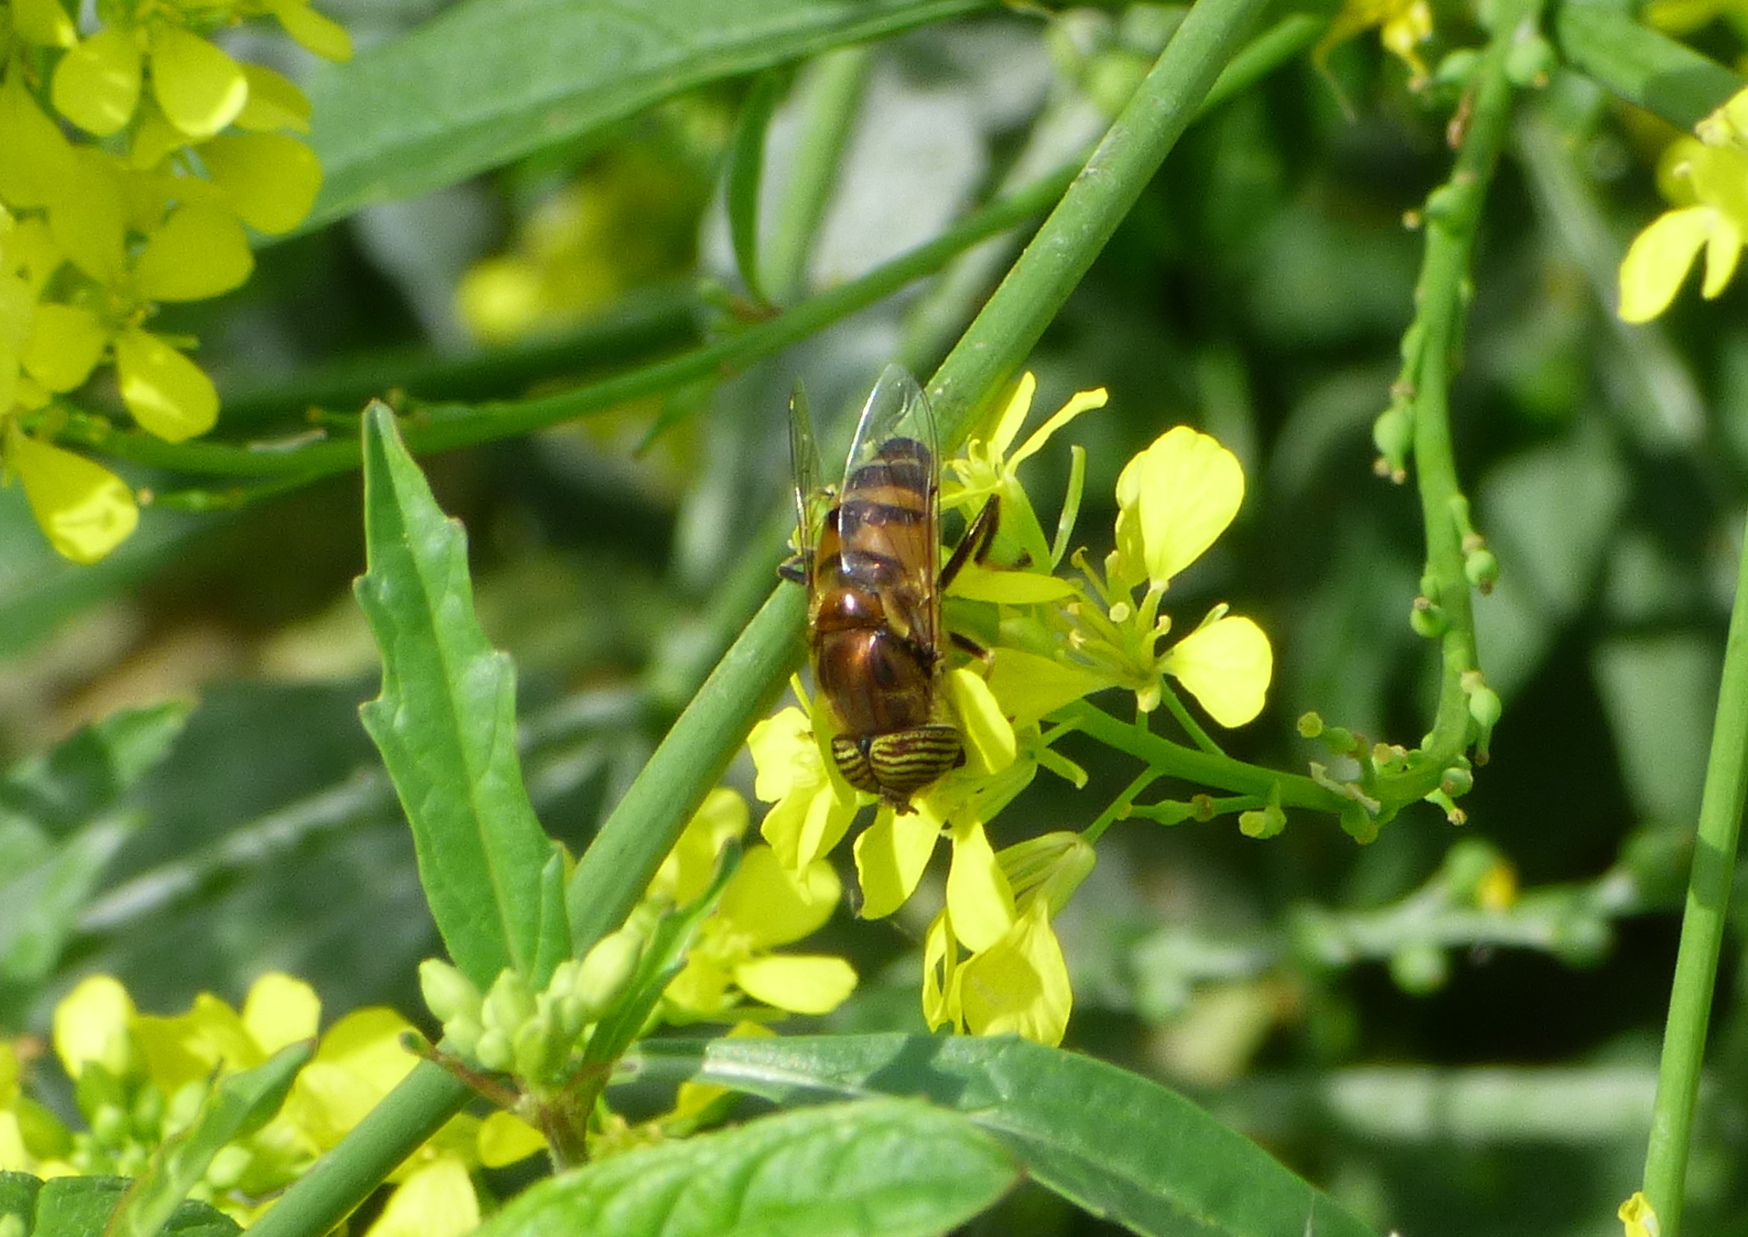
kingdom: Animalia
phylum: Arthropoda
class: Insecta
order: Diptera
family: Syrphidae
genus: Eristalinus
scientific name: Eristalinus taeniops
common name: Syrphid fly
